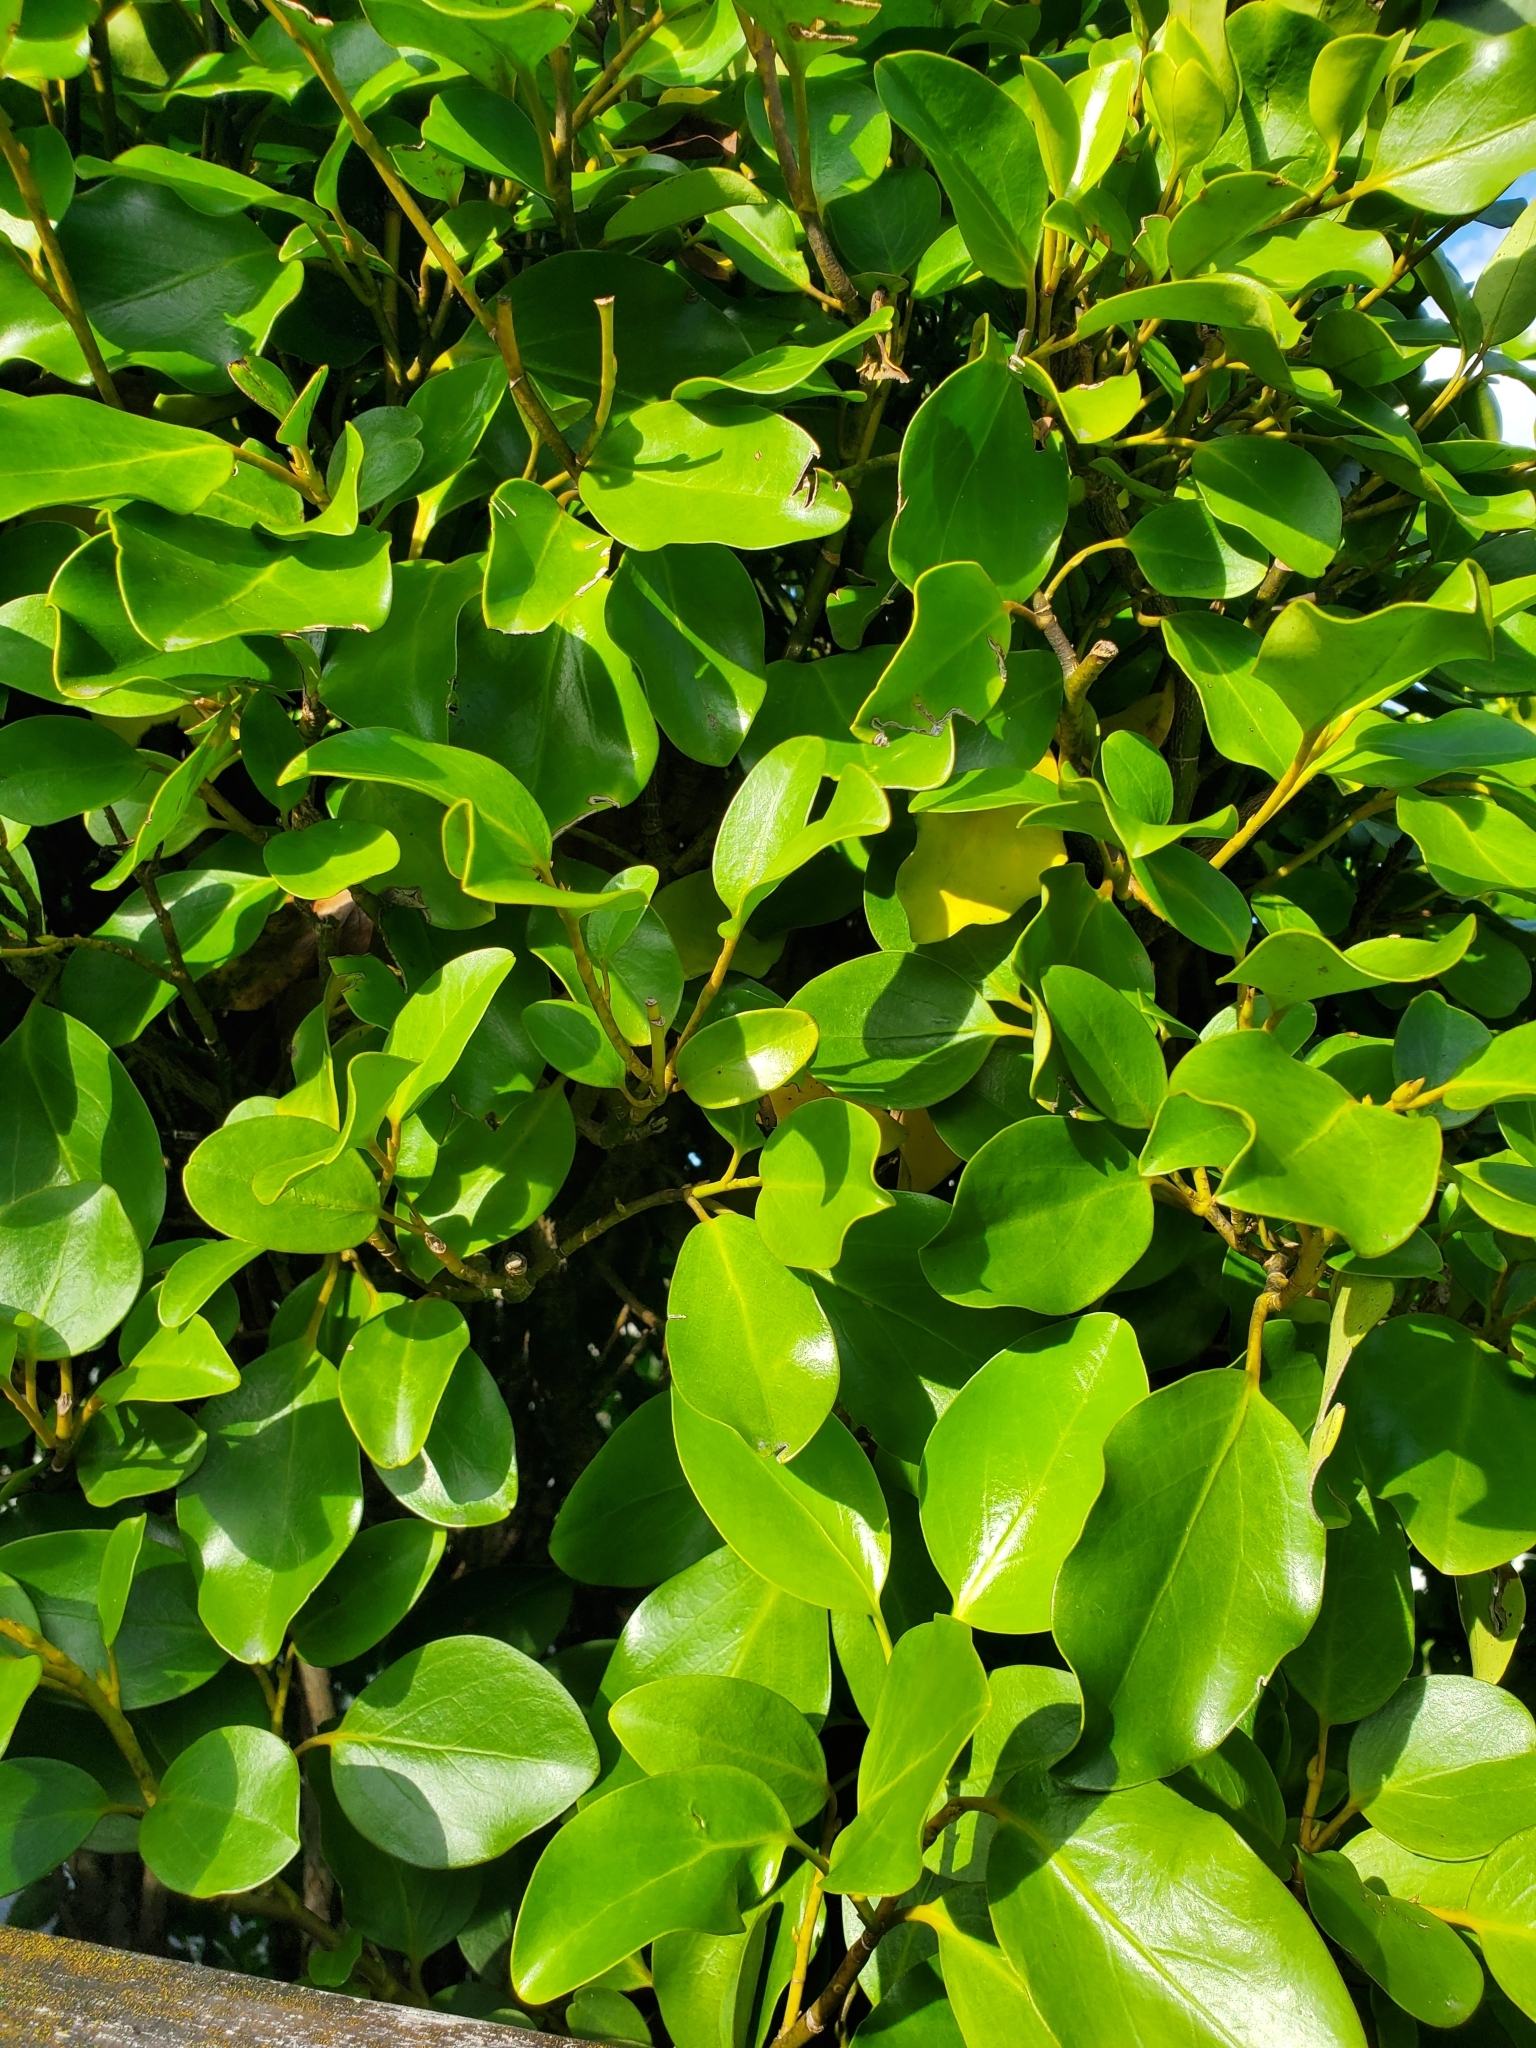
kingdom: Plantae
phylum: Tracheophyta
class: Magnoliopsida
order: Apiales
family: Griseliniaceae
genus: Griselinia
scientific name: Griselinia littoralis
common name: New zealand broadleaf
